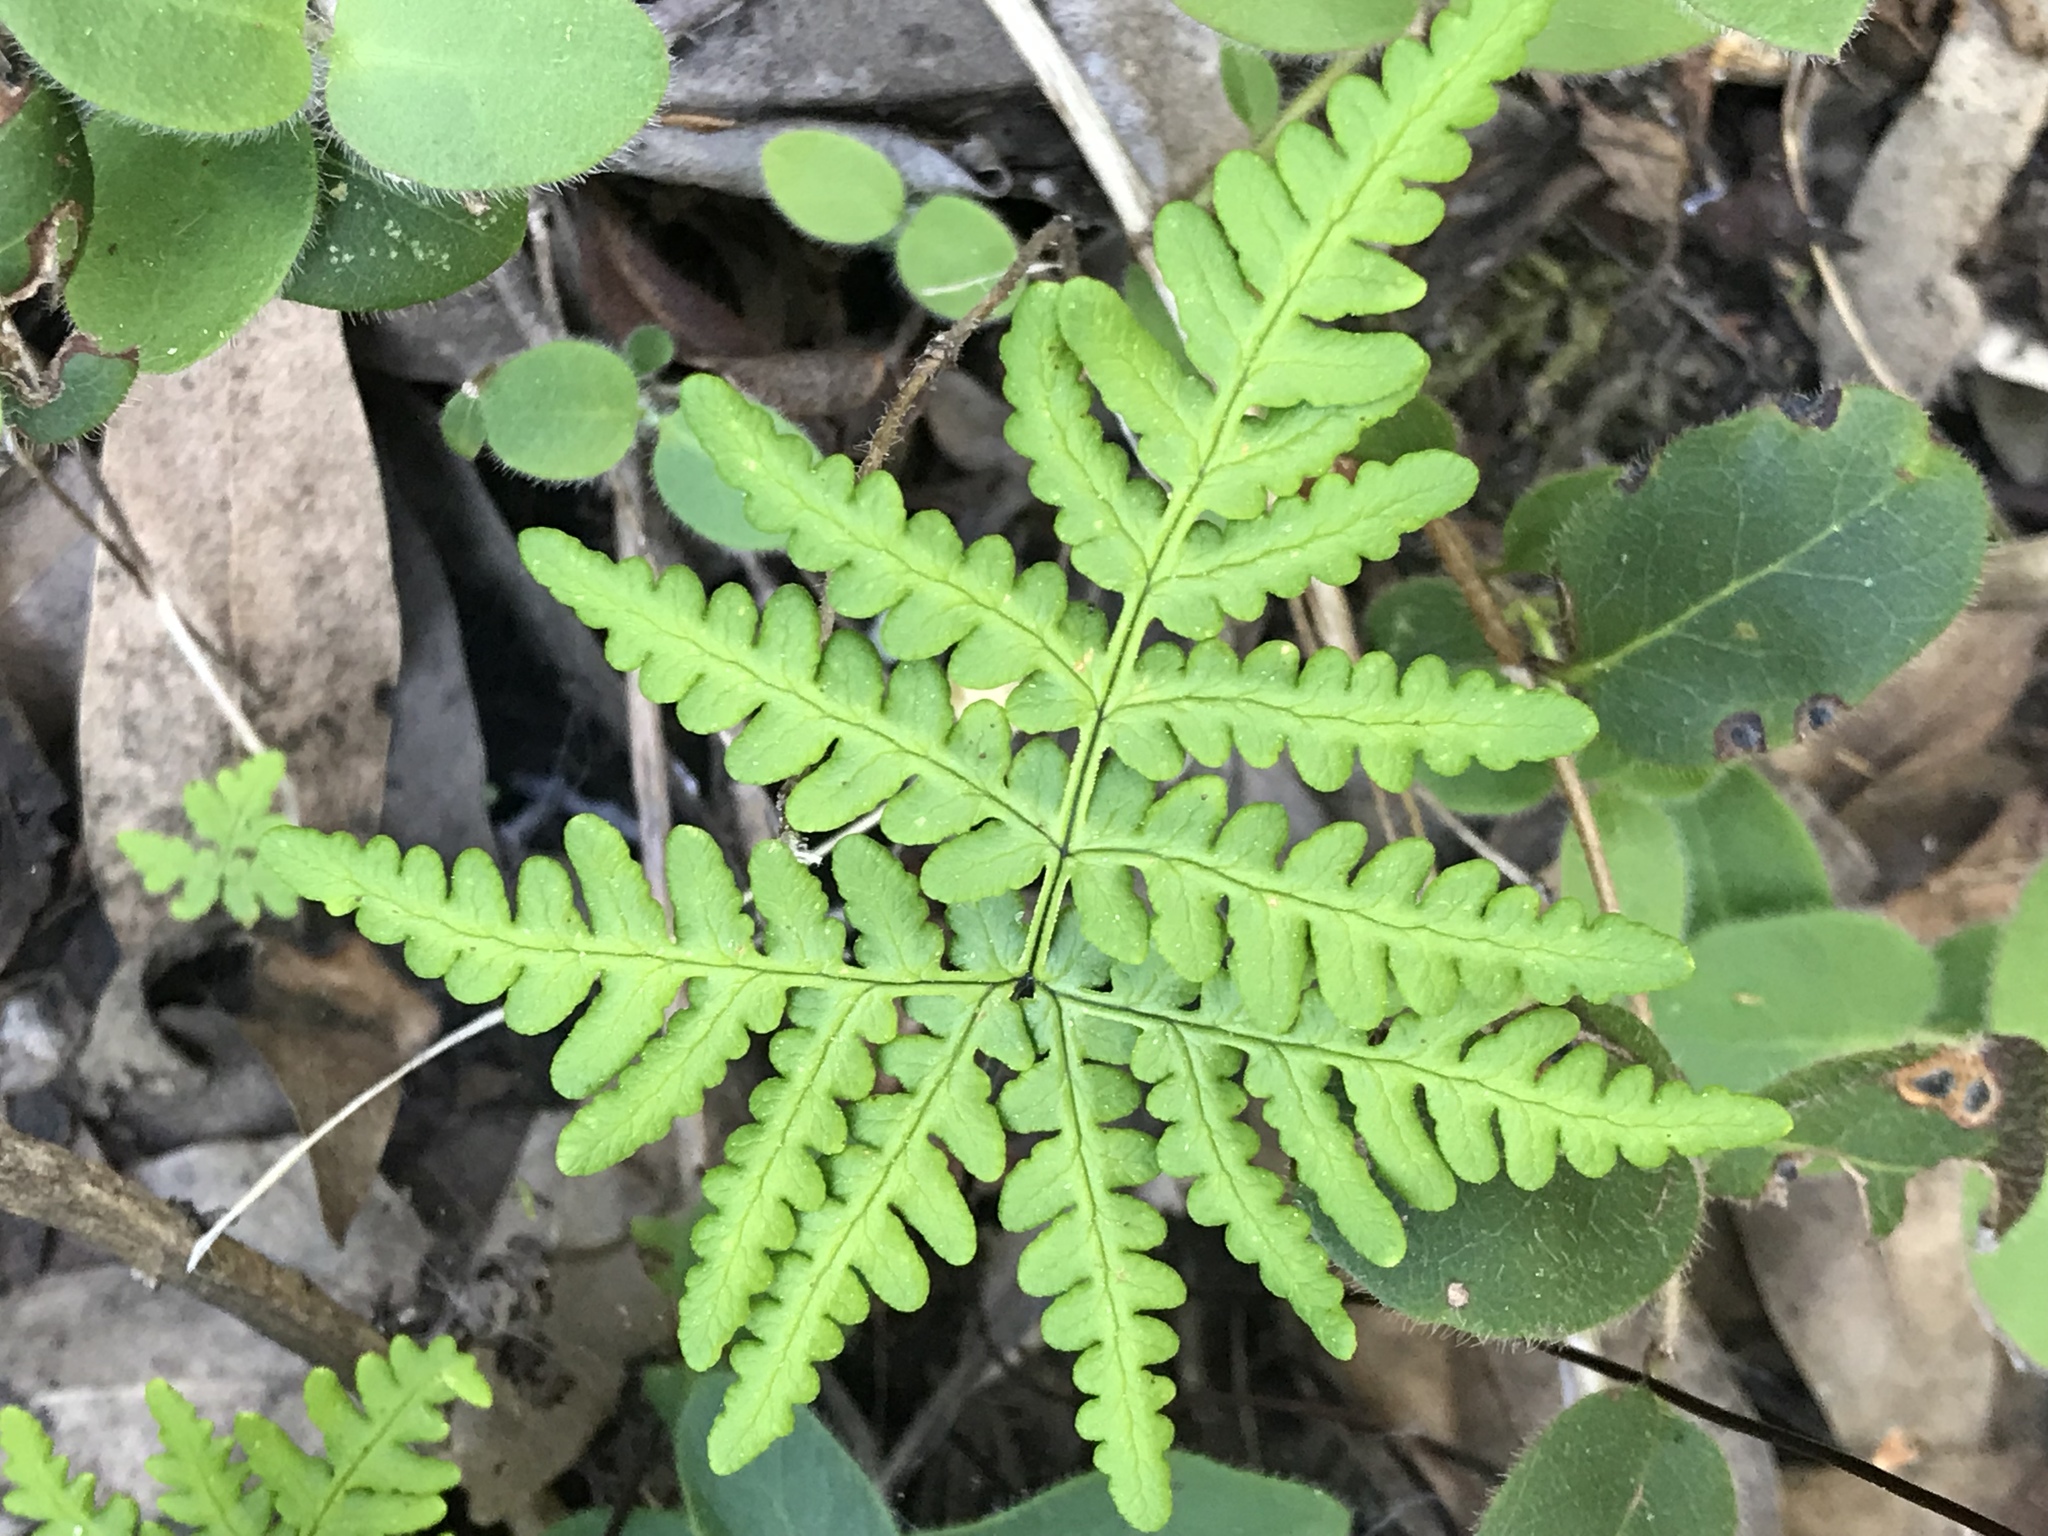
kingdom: Plantae
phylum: Tracheophyta
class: Polypodiopsida
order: Polypodiales
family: Pteridaceae
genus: Pentagramma
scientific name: Pentagramma triangularis
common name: Gold fern
